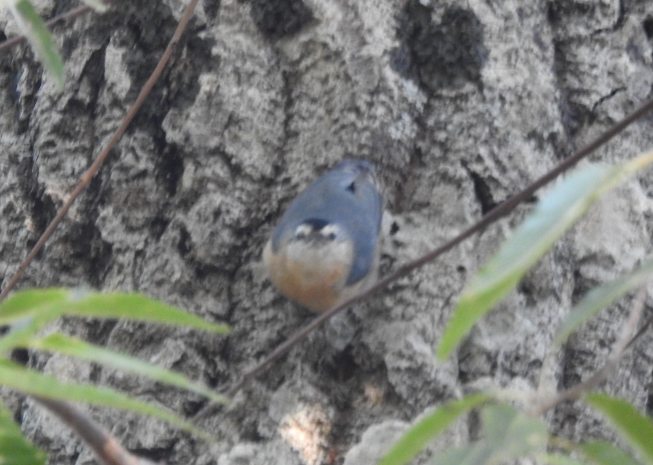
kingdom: Animalia
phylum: Chordata
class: Aves
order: Passeriformes
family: Sittidae
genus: Sitta
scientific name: Sitta ledanti
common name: Algerian nuthatch
